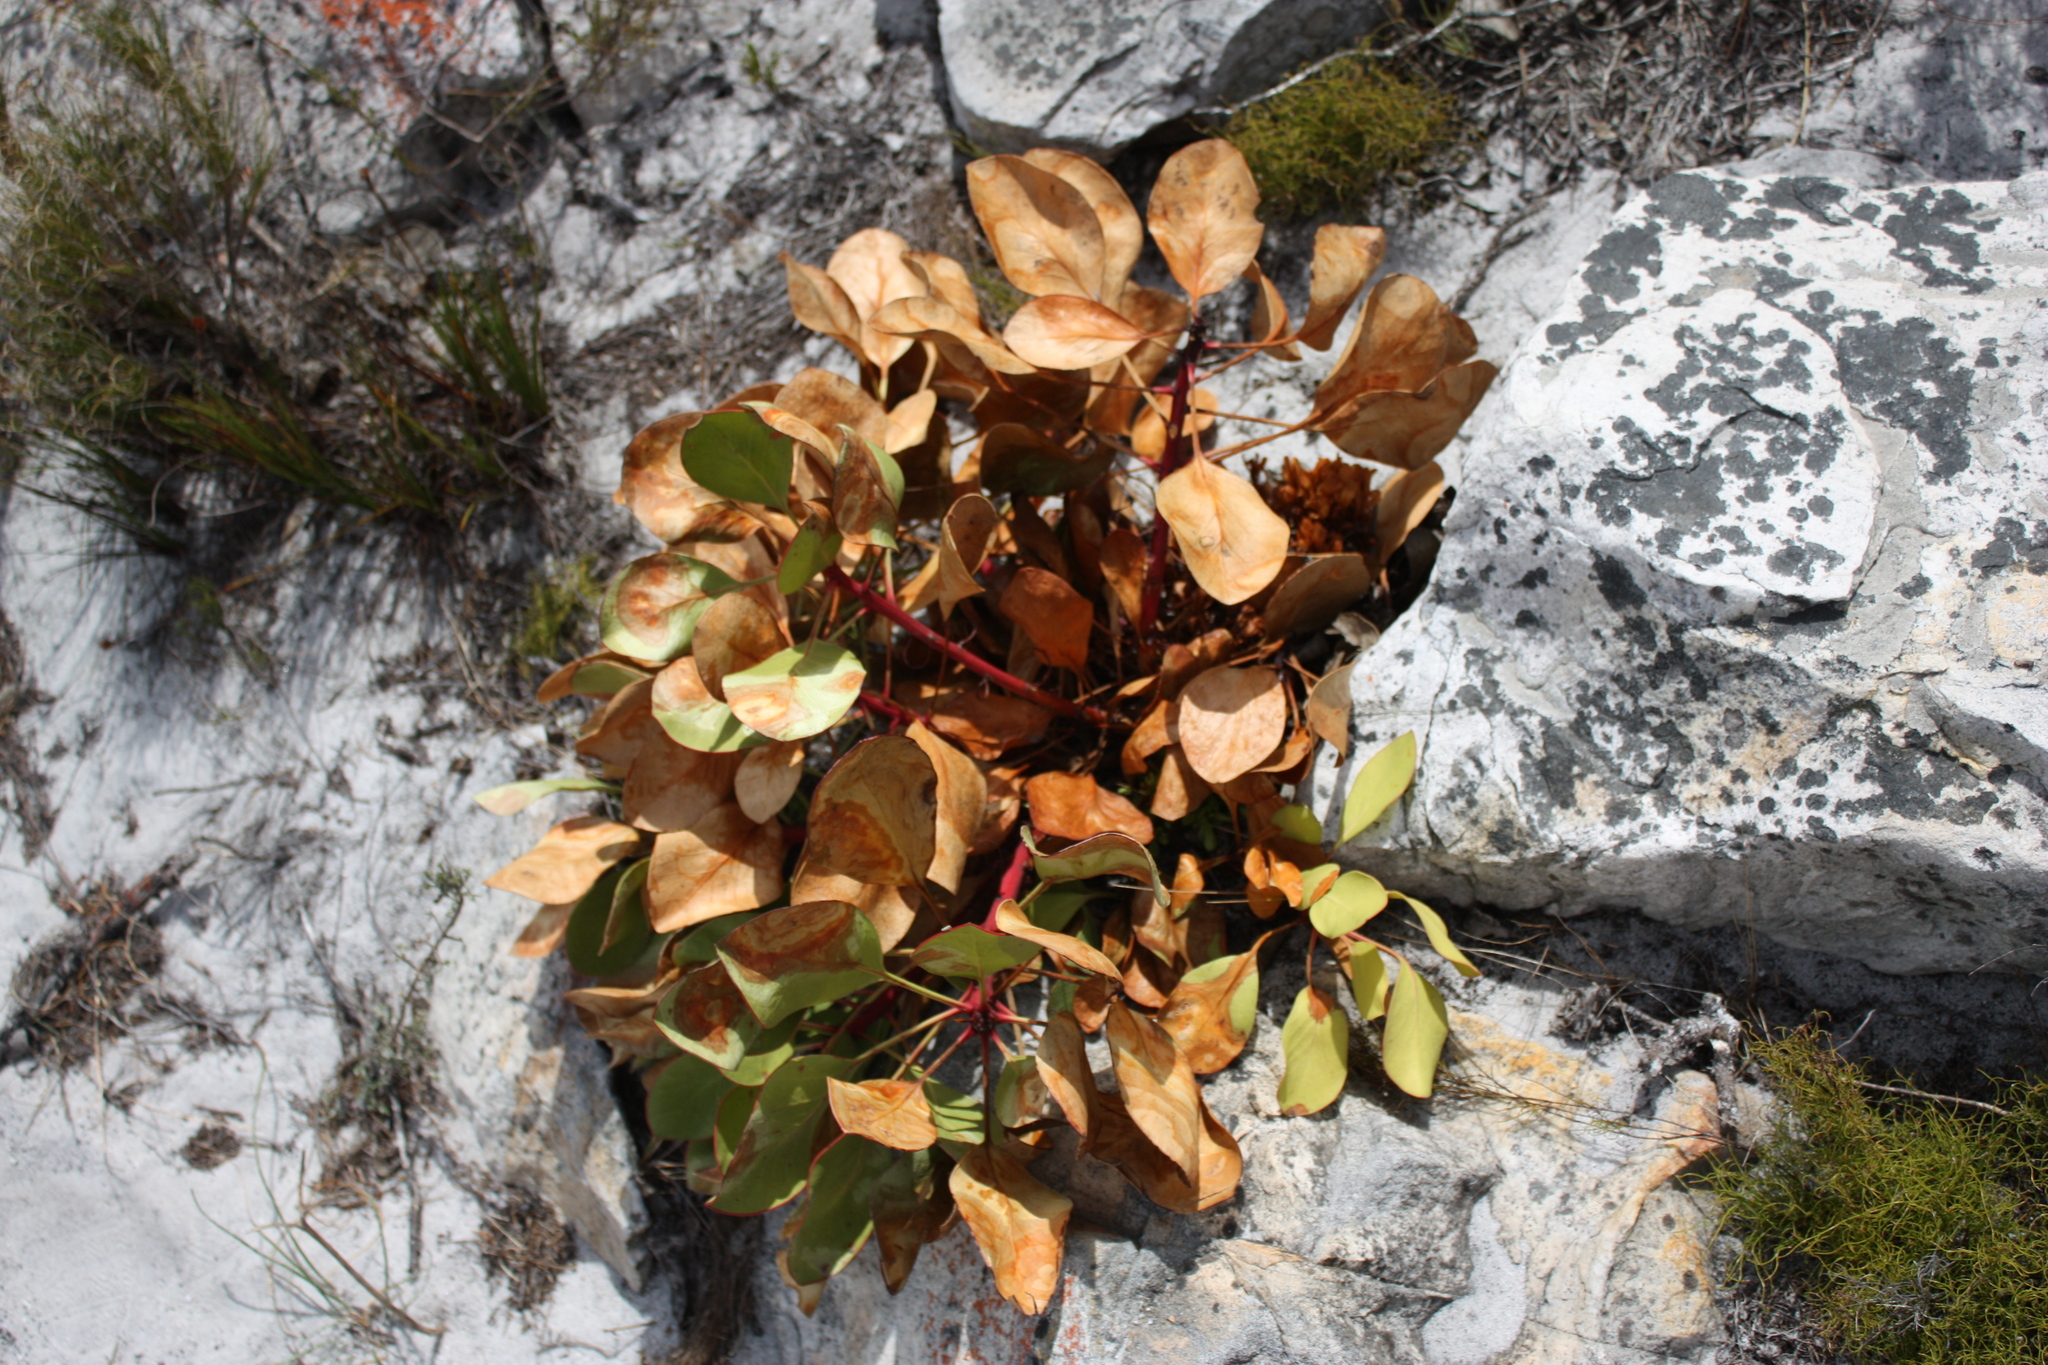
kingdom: Plantae
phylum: Tracheophyta
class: Magnoliopsida
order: Proteales
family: Proteaceae
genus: Protea
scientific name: Protea cynaroides
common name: King protea
